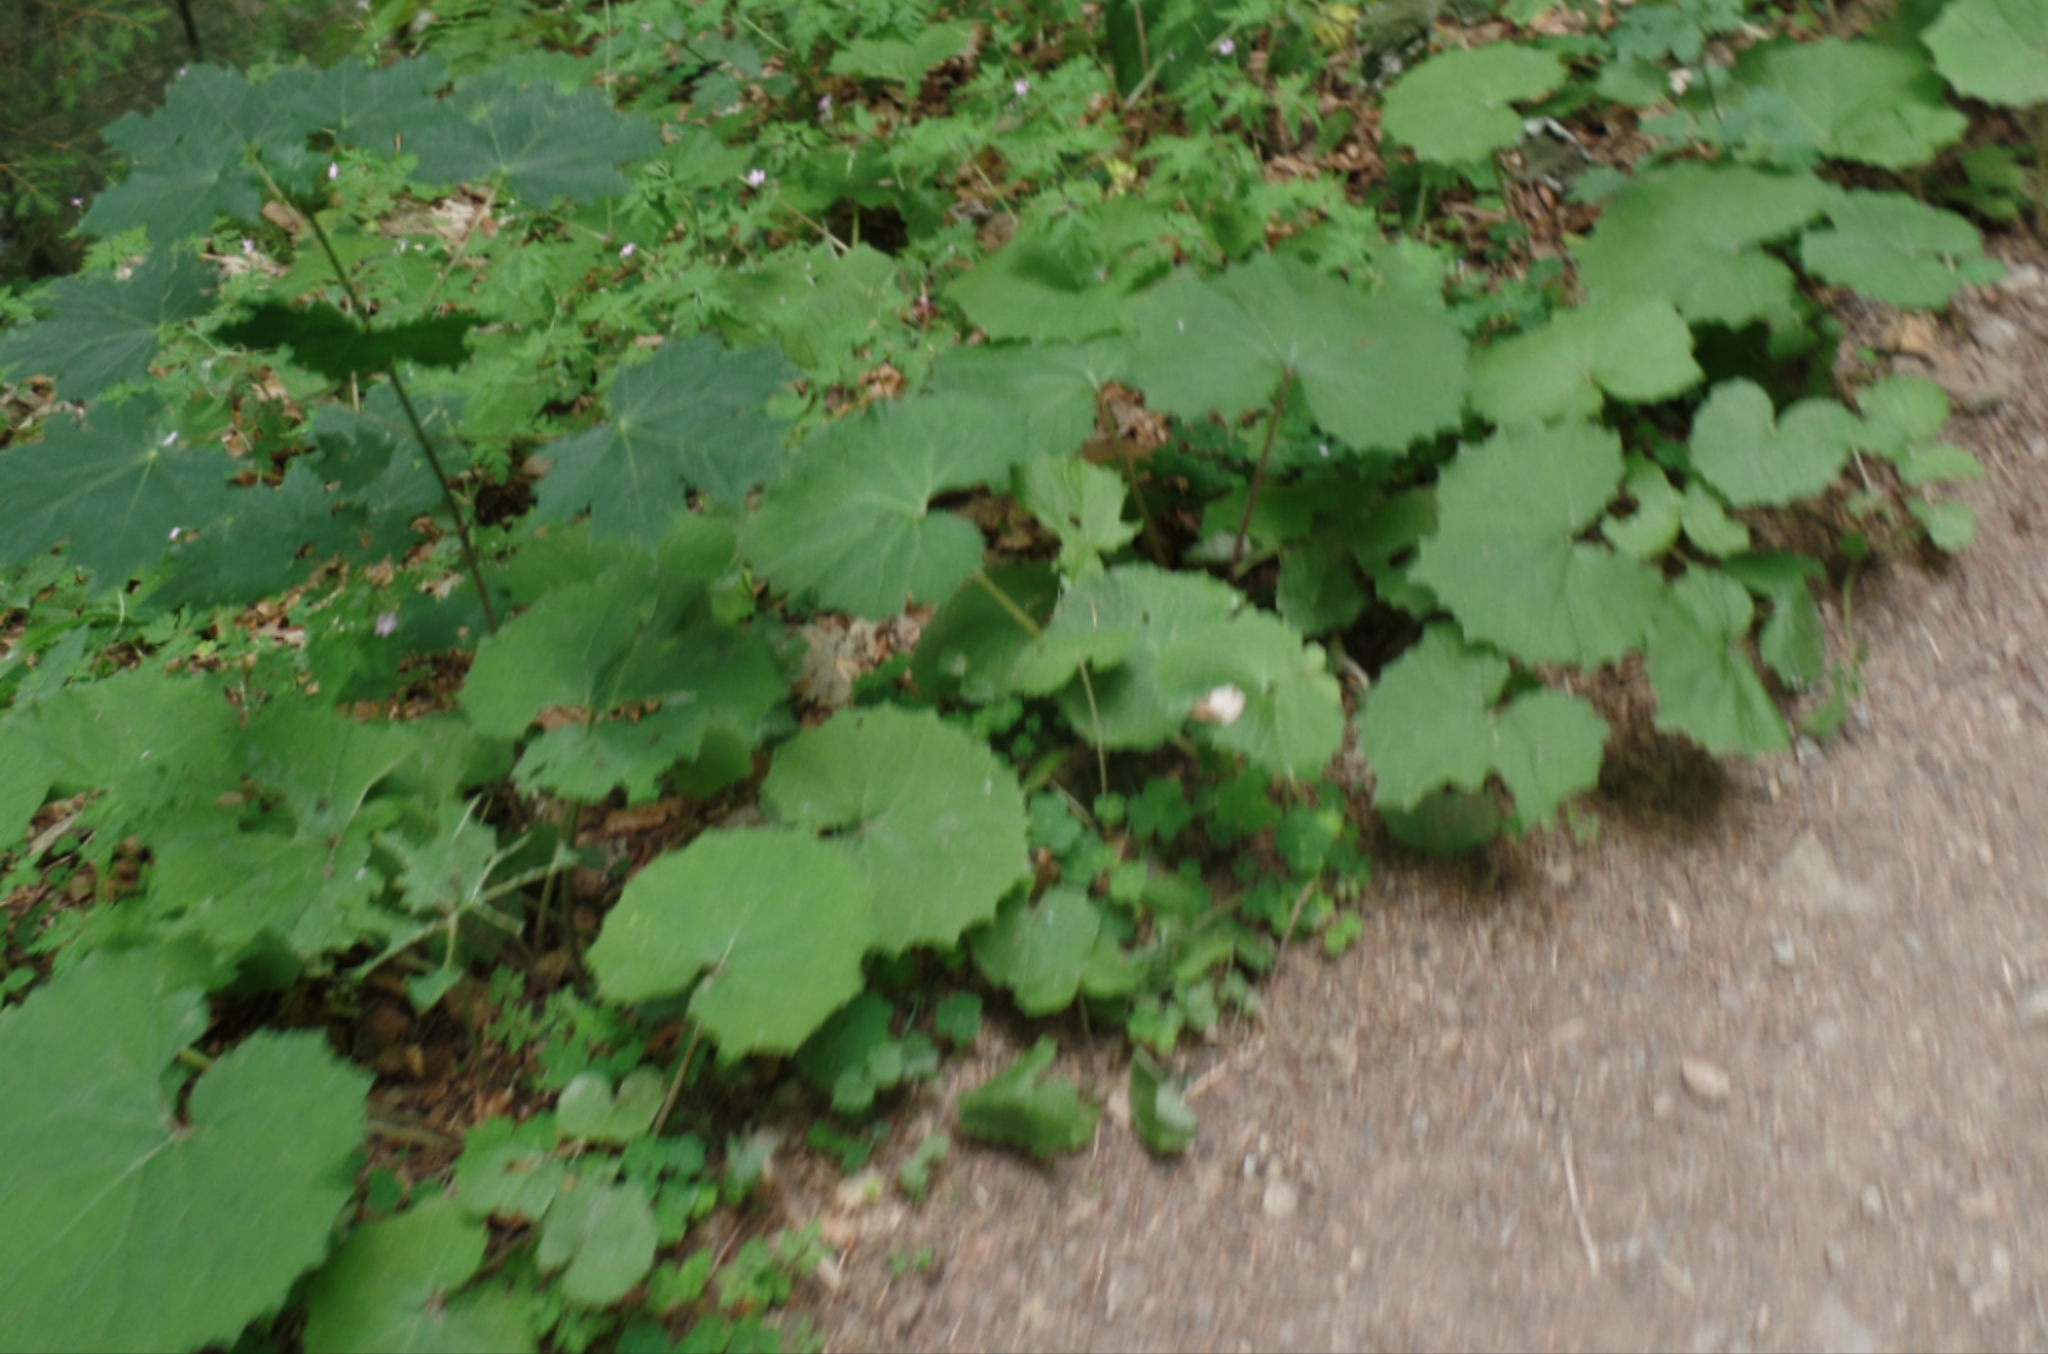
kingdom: Plantae
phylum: Tracheophyta
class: Magnoliopsida
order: Asterales
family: Asteraceae
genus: Tussilago
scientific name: Tussilago farfara
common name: Coltsfoot
